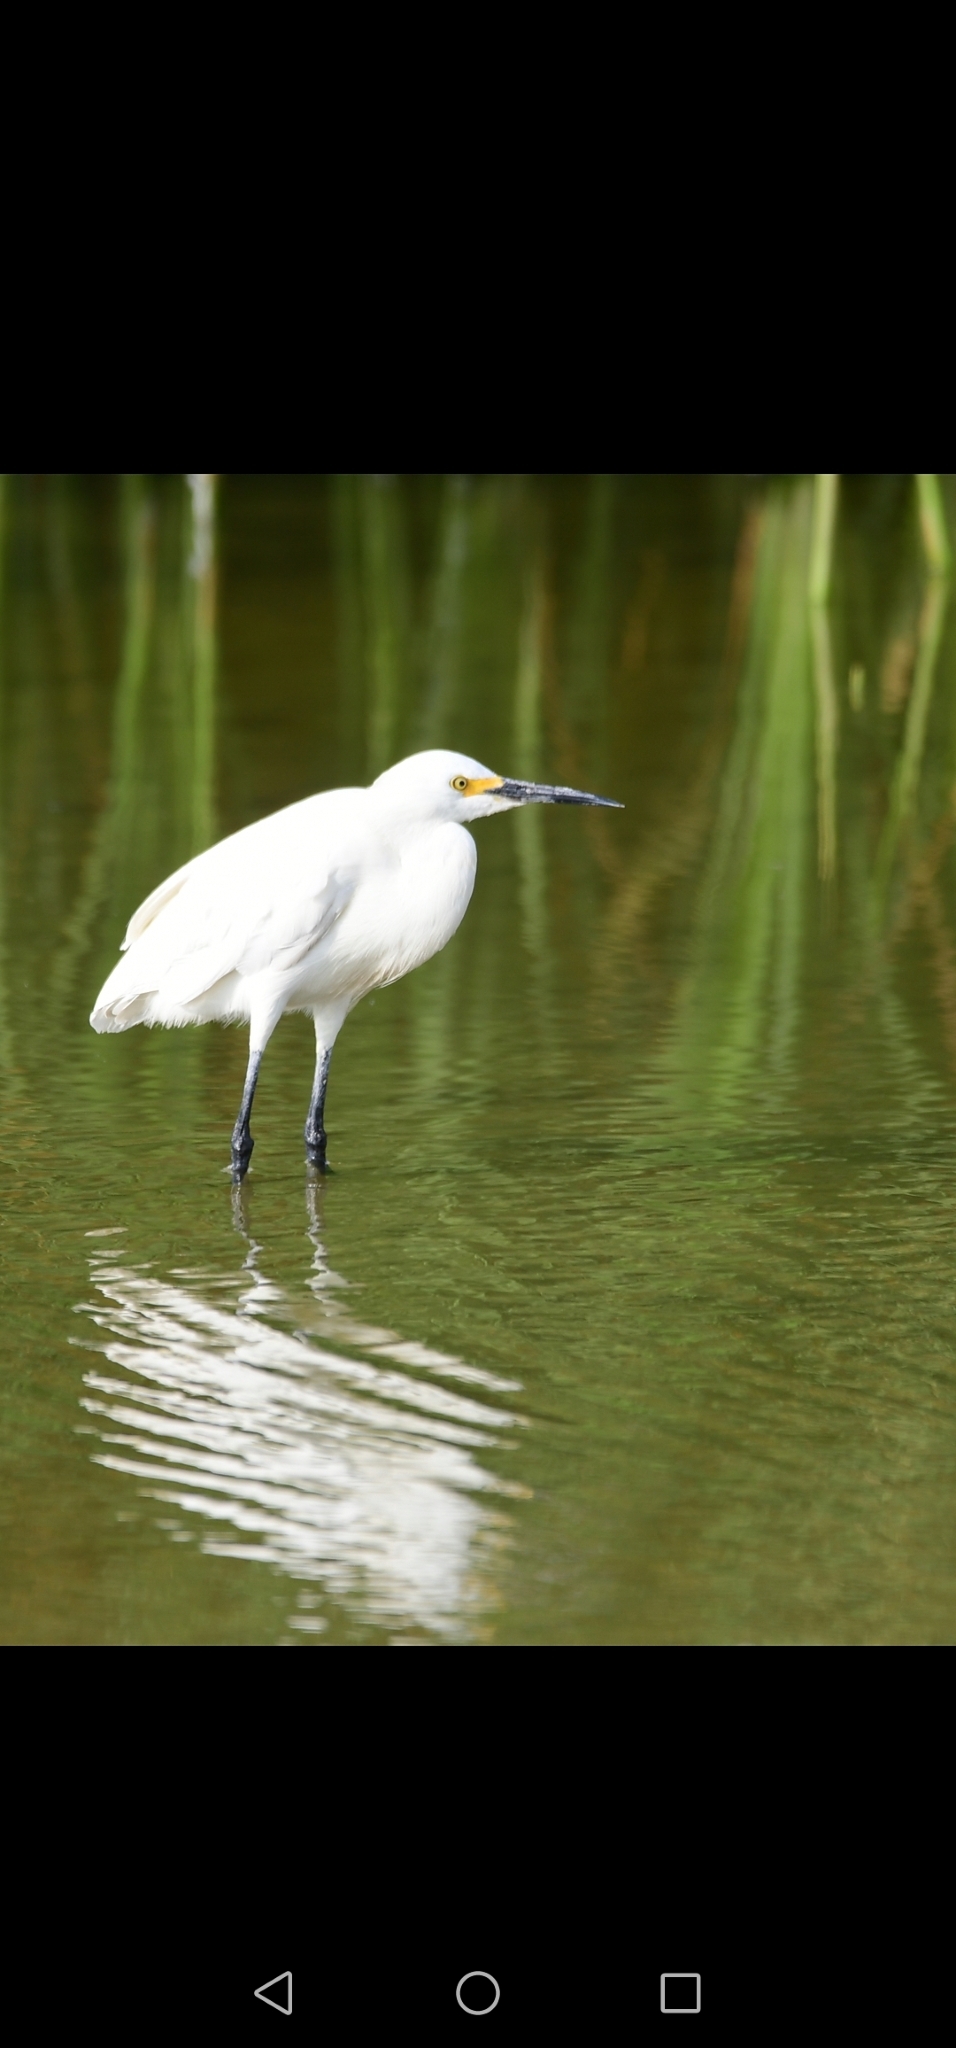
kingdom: Animalia
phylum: Chordata
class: Aves
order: Pelecaniformes
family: Ardeidae
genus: Egretta
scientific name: Egretta thula
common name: Snowy egret
